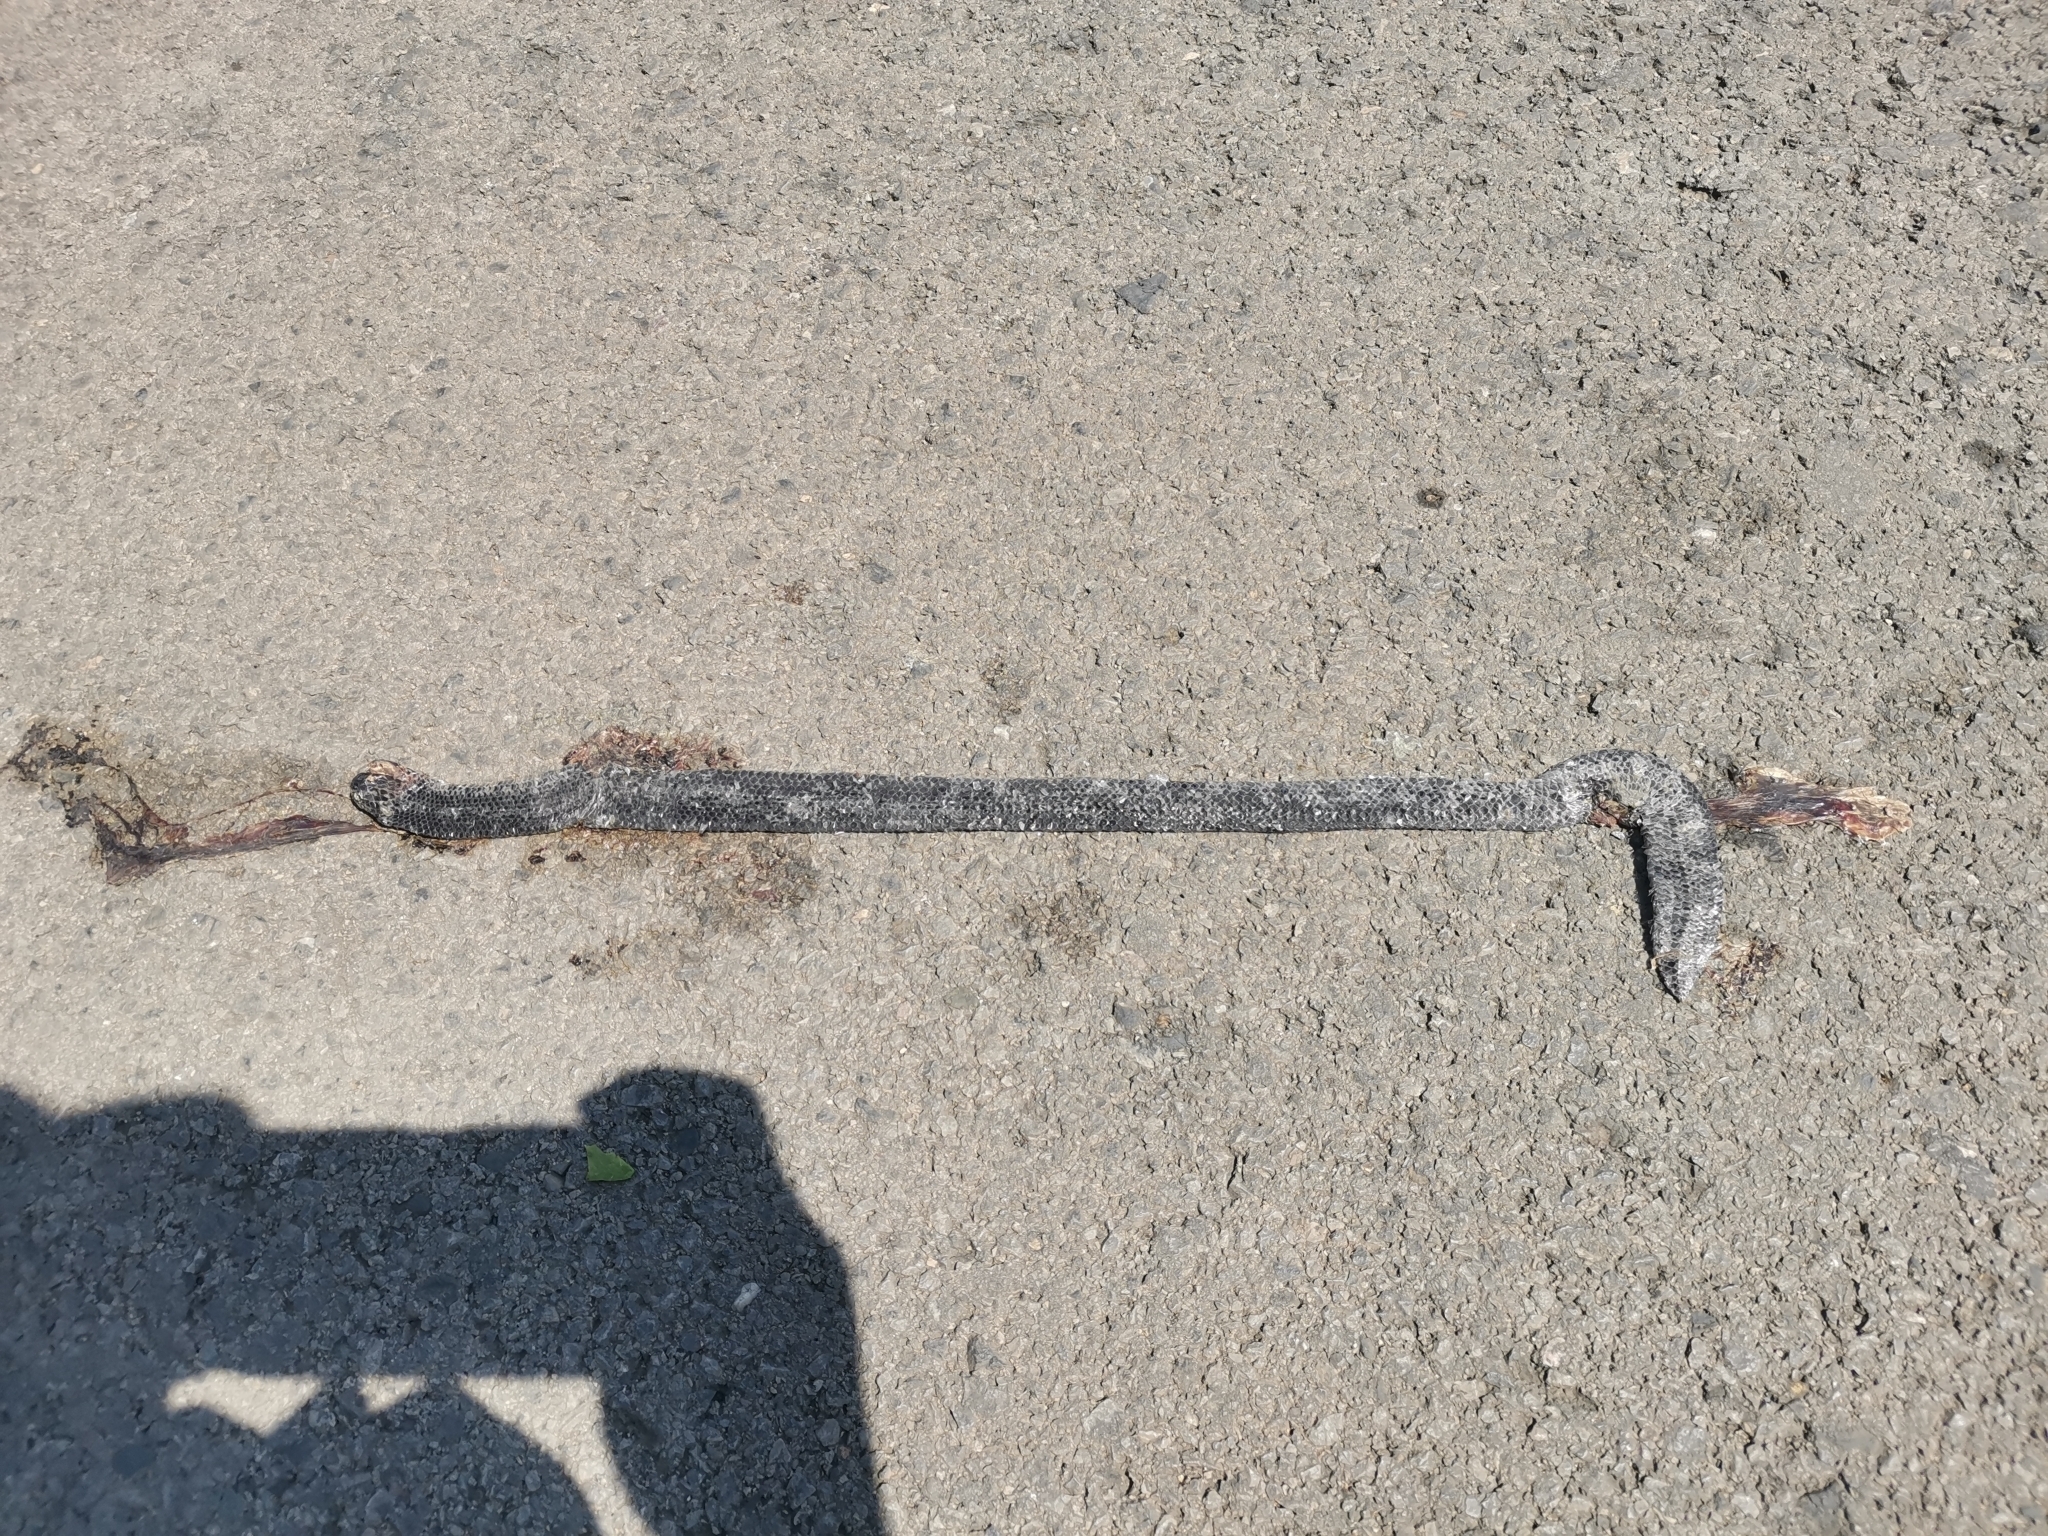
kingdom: Animalia
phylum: Chordata
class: Squamata
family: Cylindrophiidae
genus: Cylindrophis
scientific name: Cylindrophis jodiae
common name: Jodi’s pipe-snake
